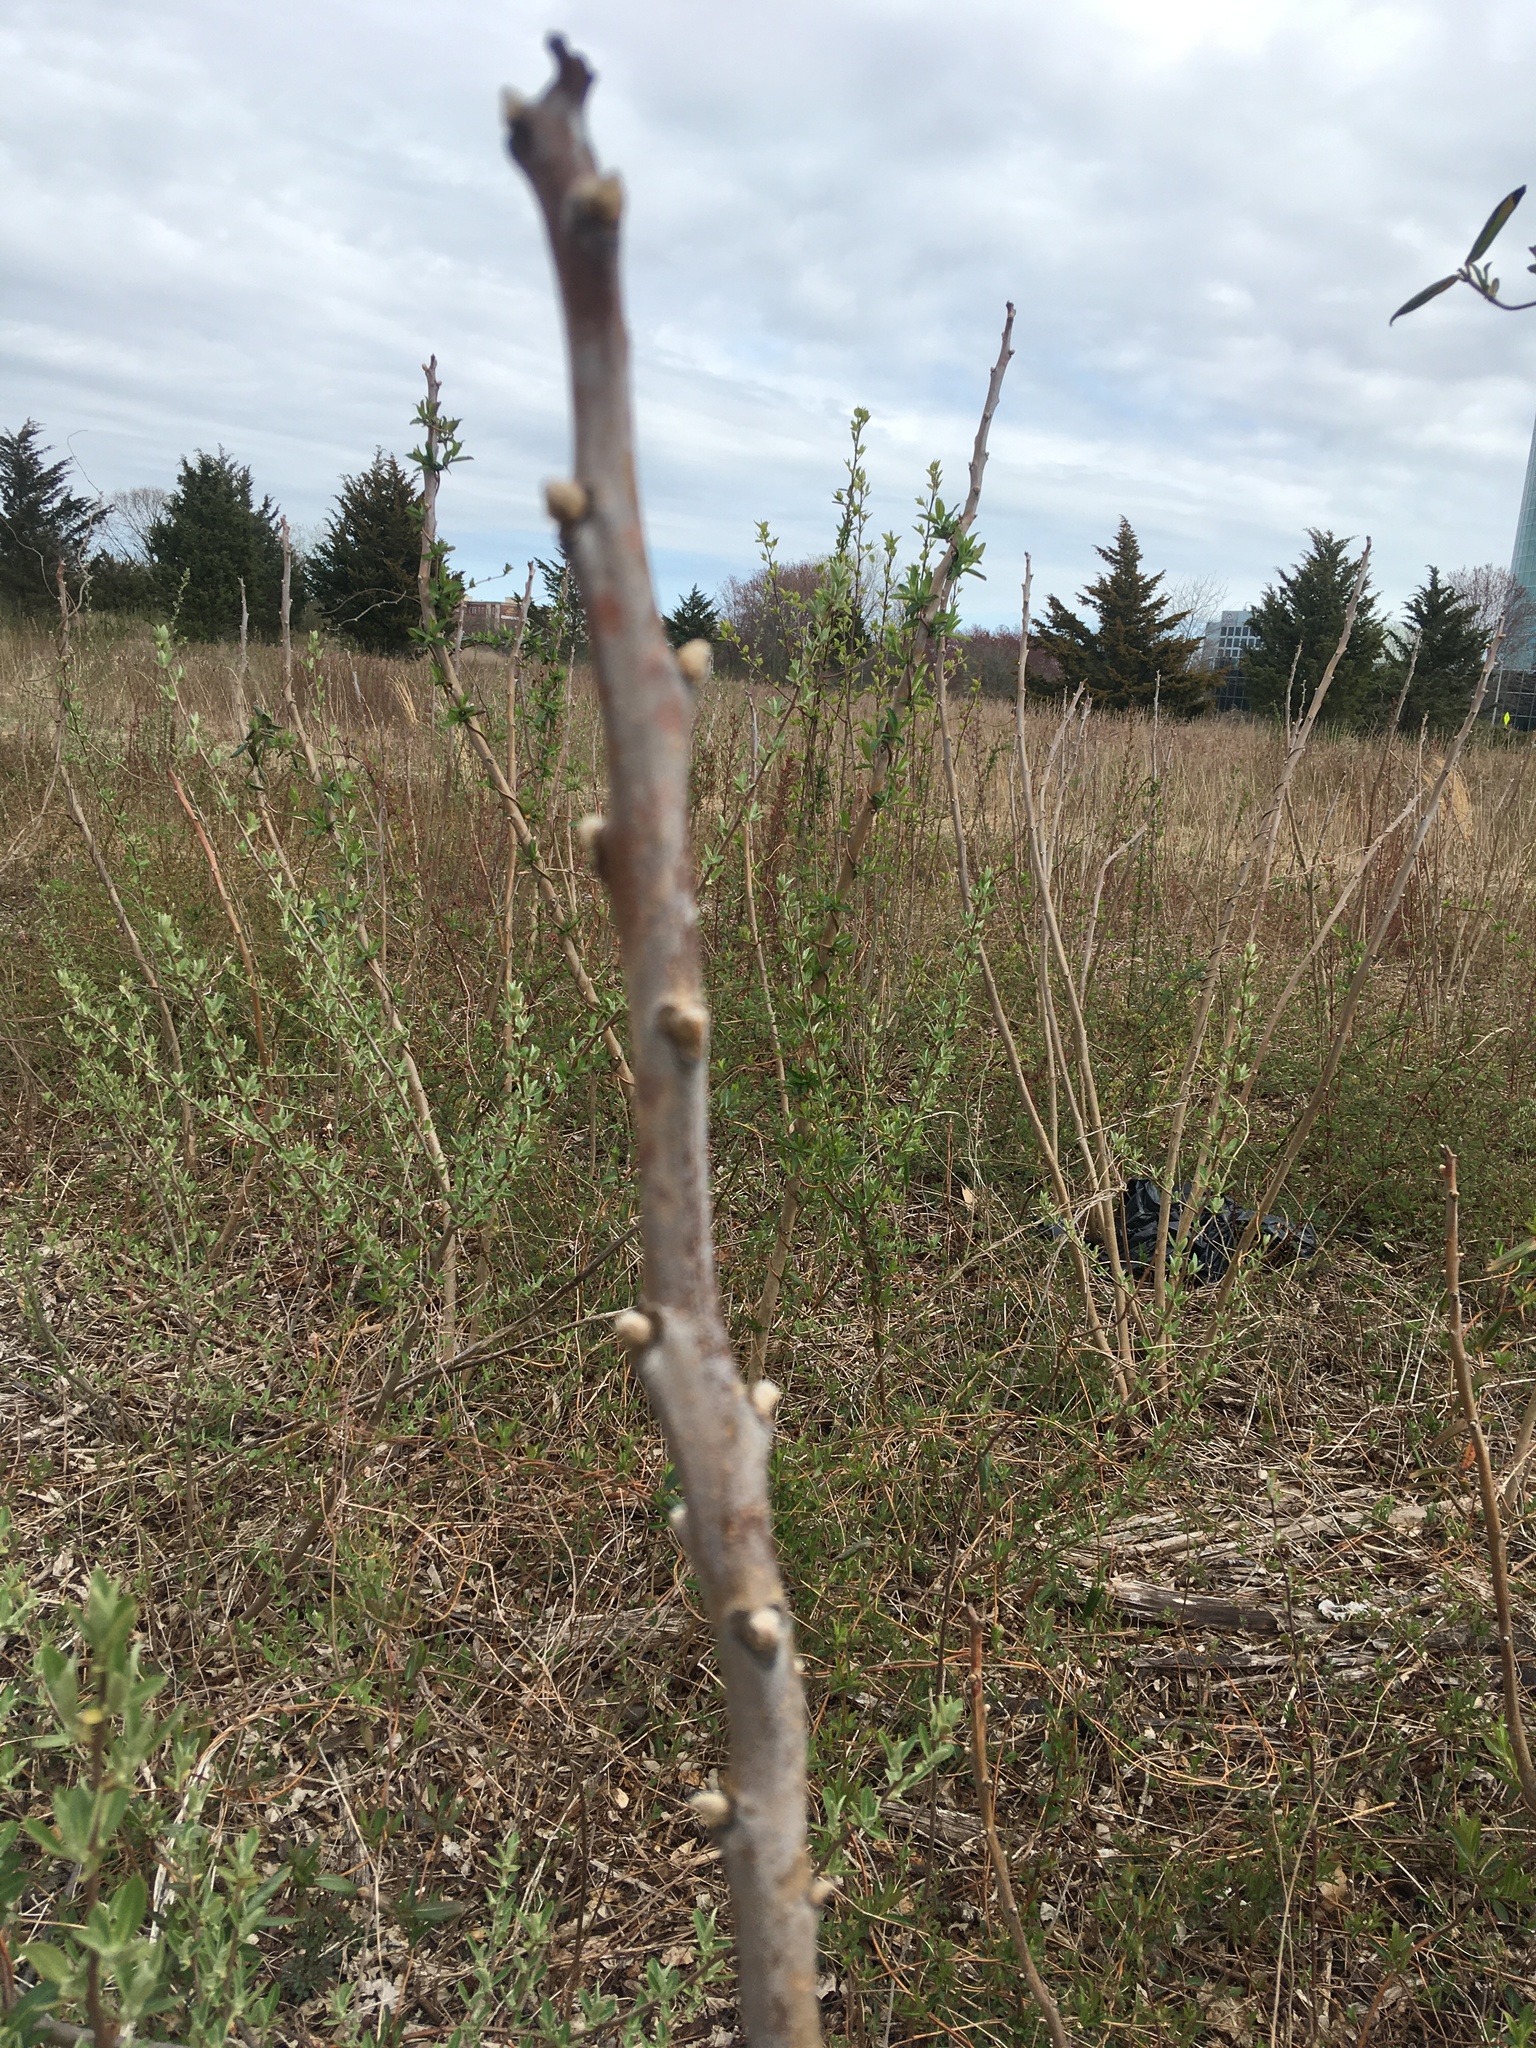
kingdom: Plantae
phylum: Tracheophyta
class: Magnoliopsida
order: Sapindales
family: Anacardiaceae
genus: Rhus
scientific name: Rhus glabra
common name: Scarlet sumac
